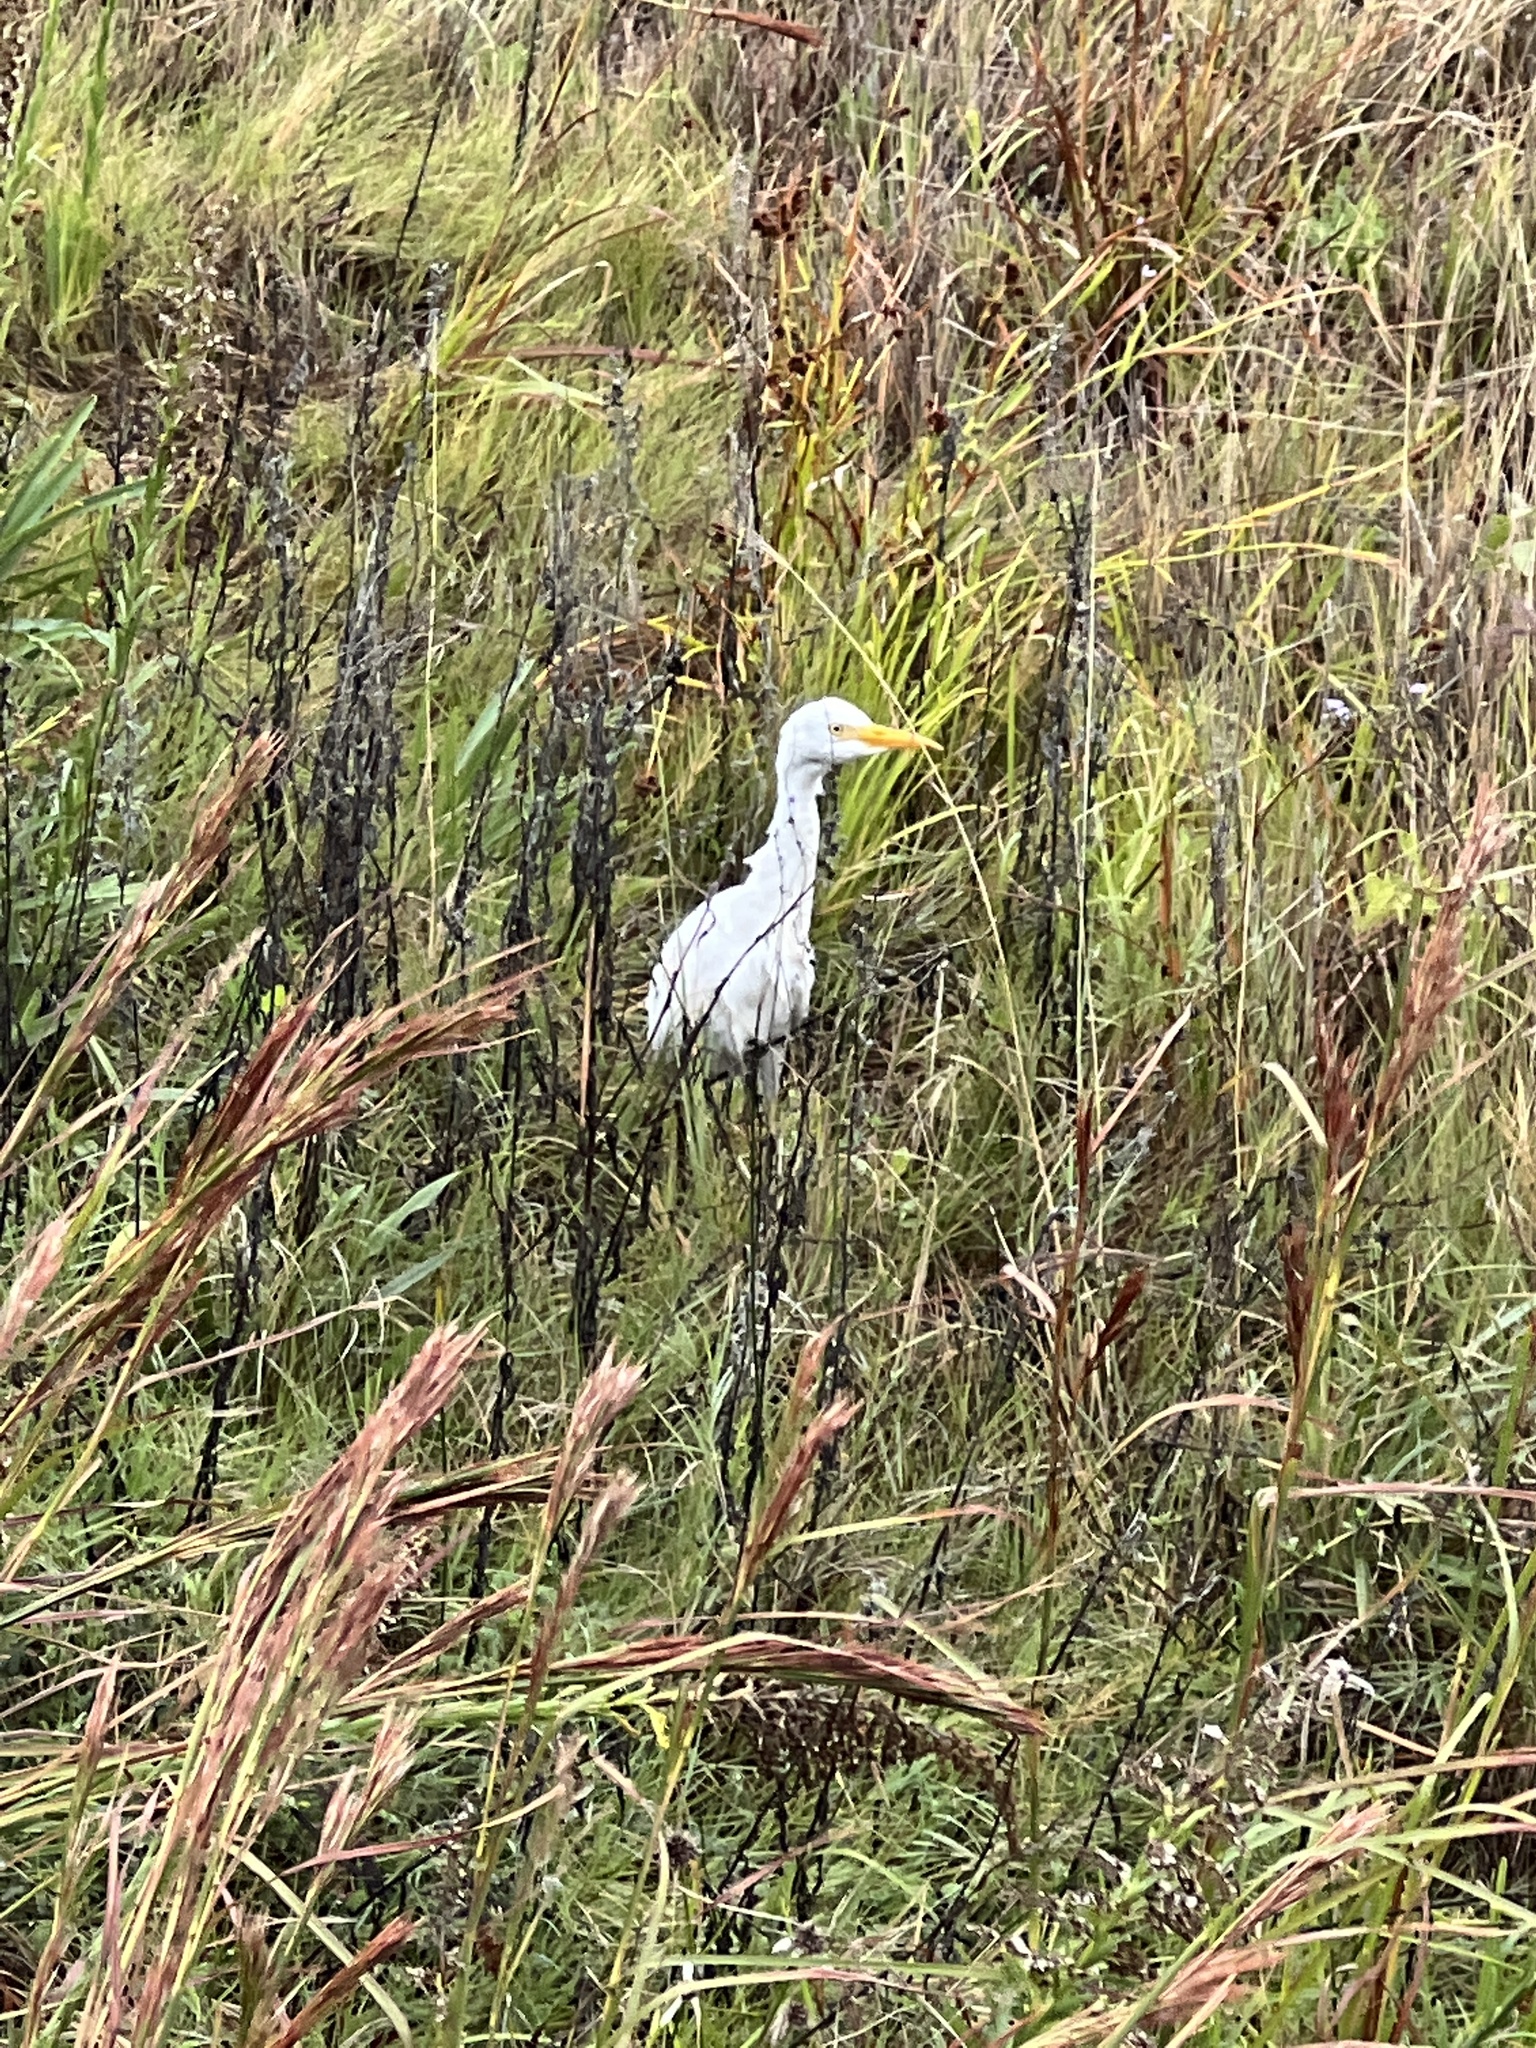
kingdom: Animalia
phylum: Chordata
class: Aves
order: Pelecaniformes
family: Ardeidae
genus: Bubulcus
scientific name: Bubulcus ibis
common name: Cattle egret
